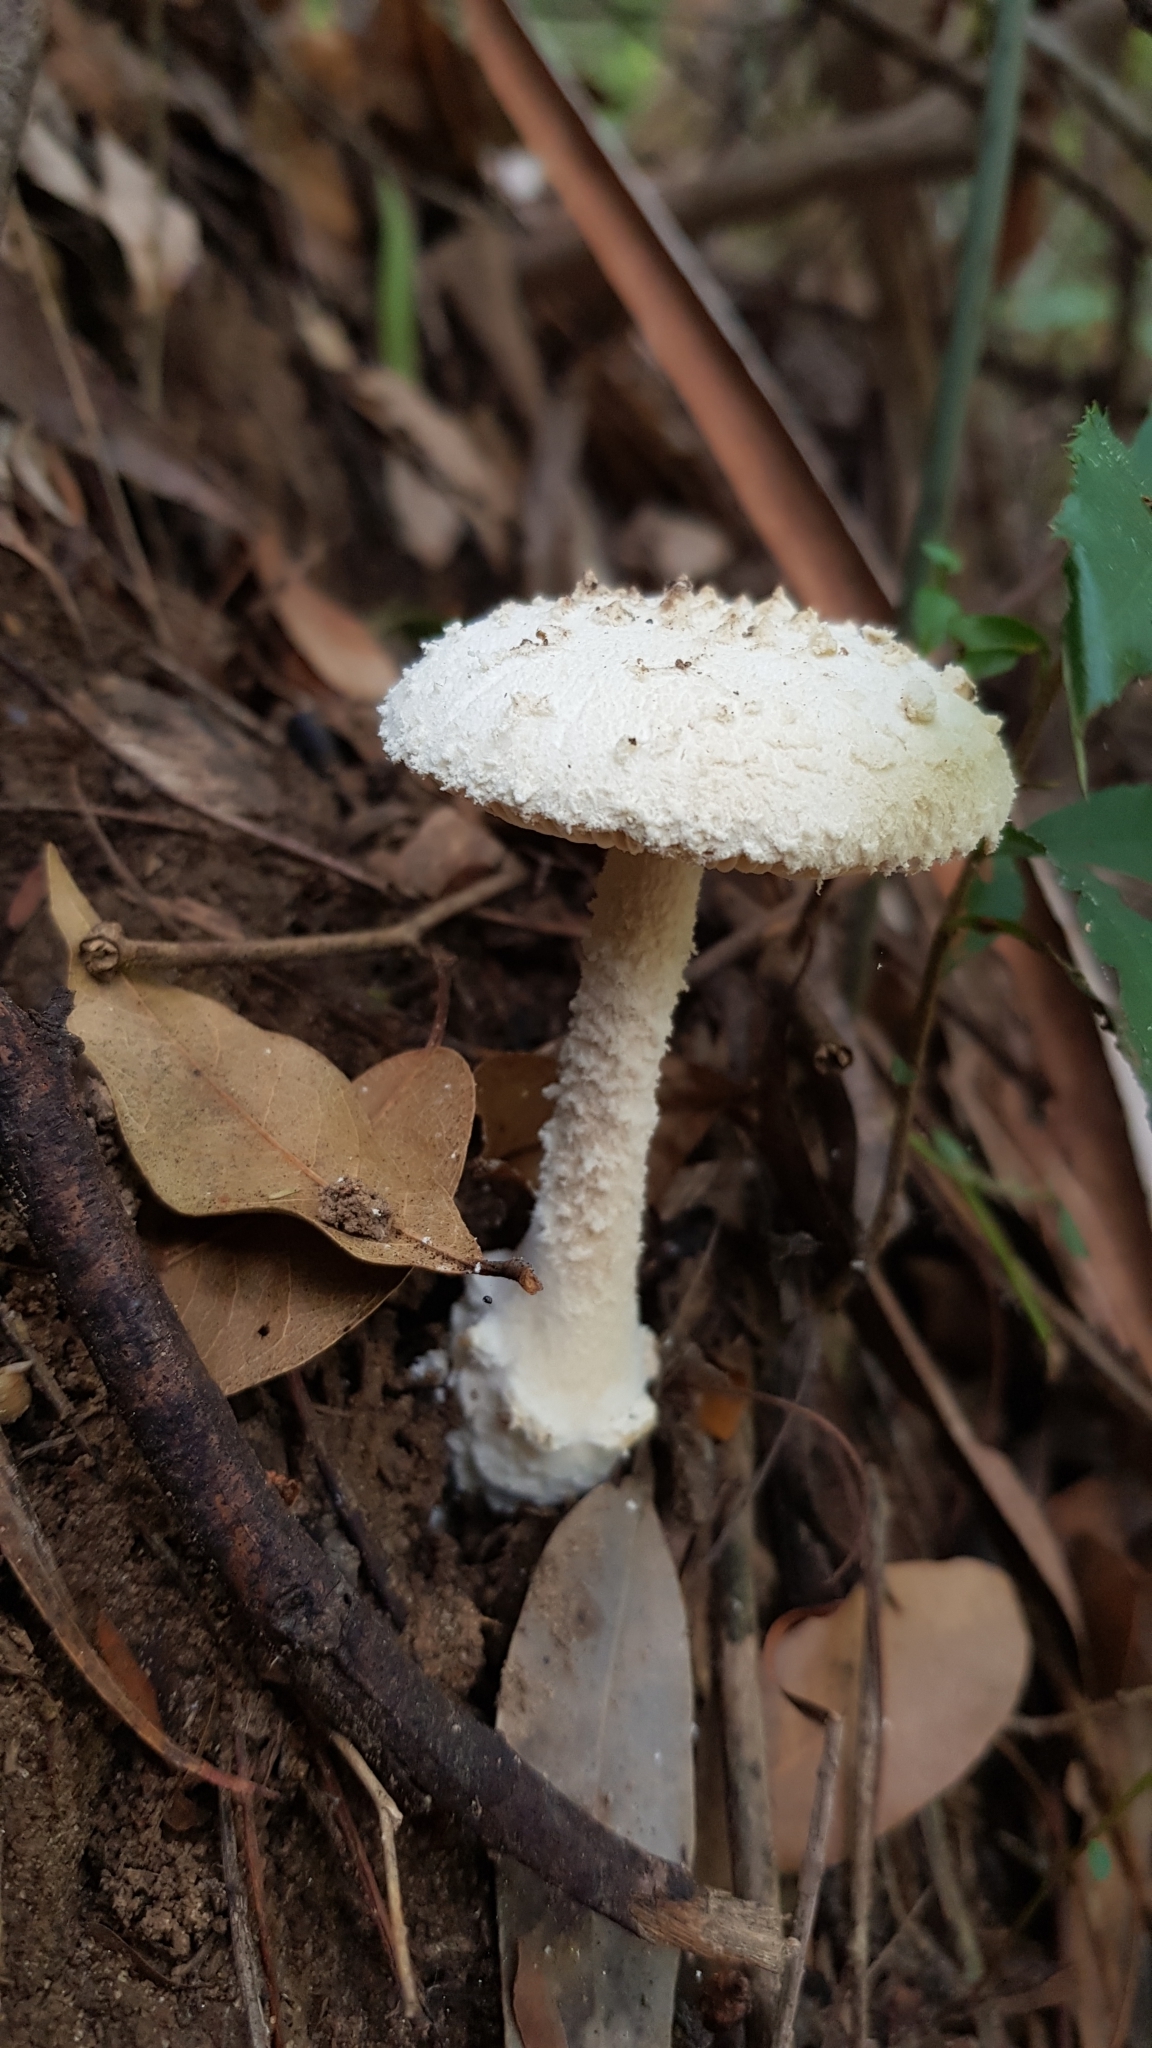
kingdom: Fungi
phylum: Basidiomycota
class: Agaricomycetes
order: Agaricales
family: Amanitaceae
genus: Amanita
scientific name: Amanita farinacea
